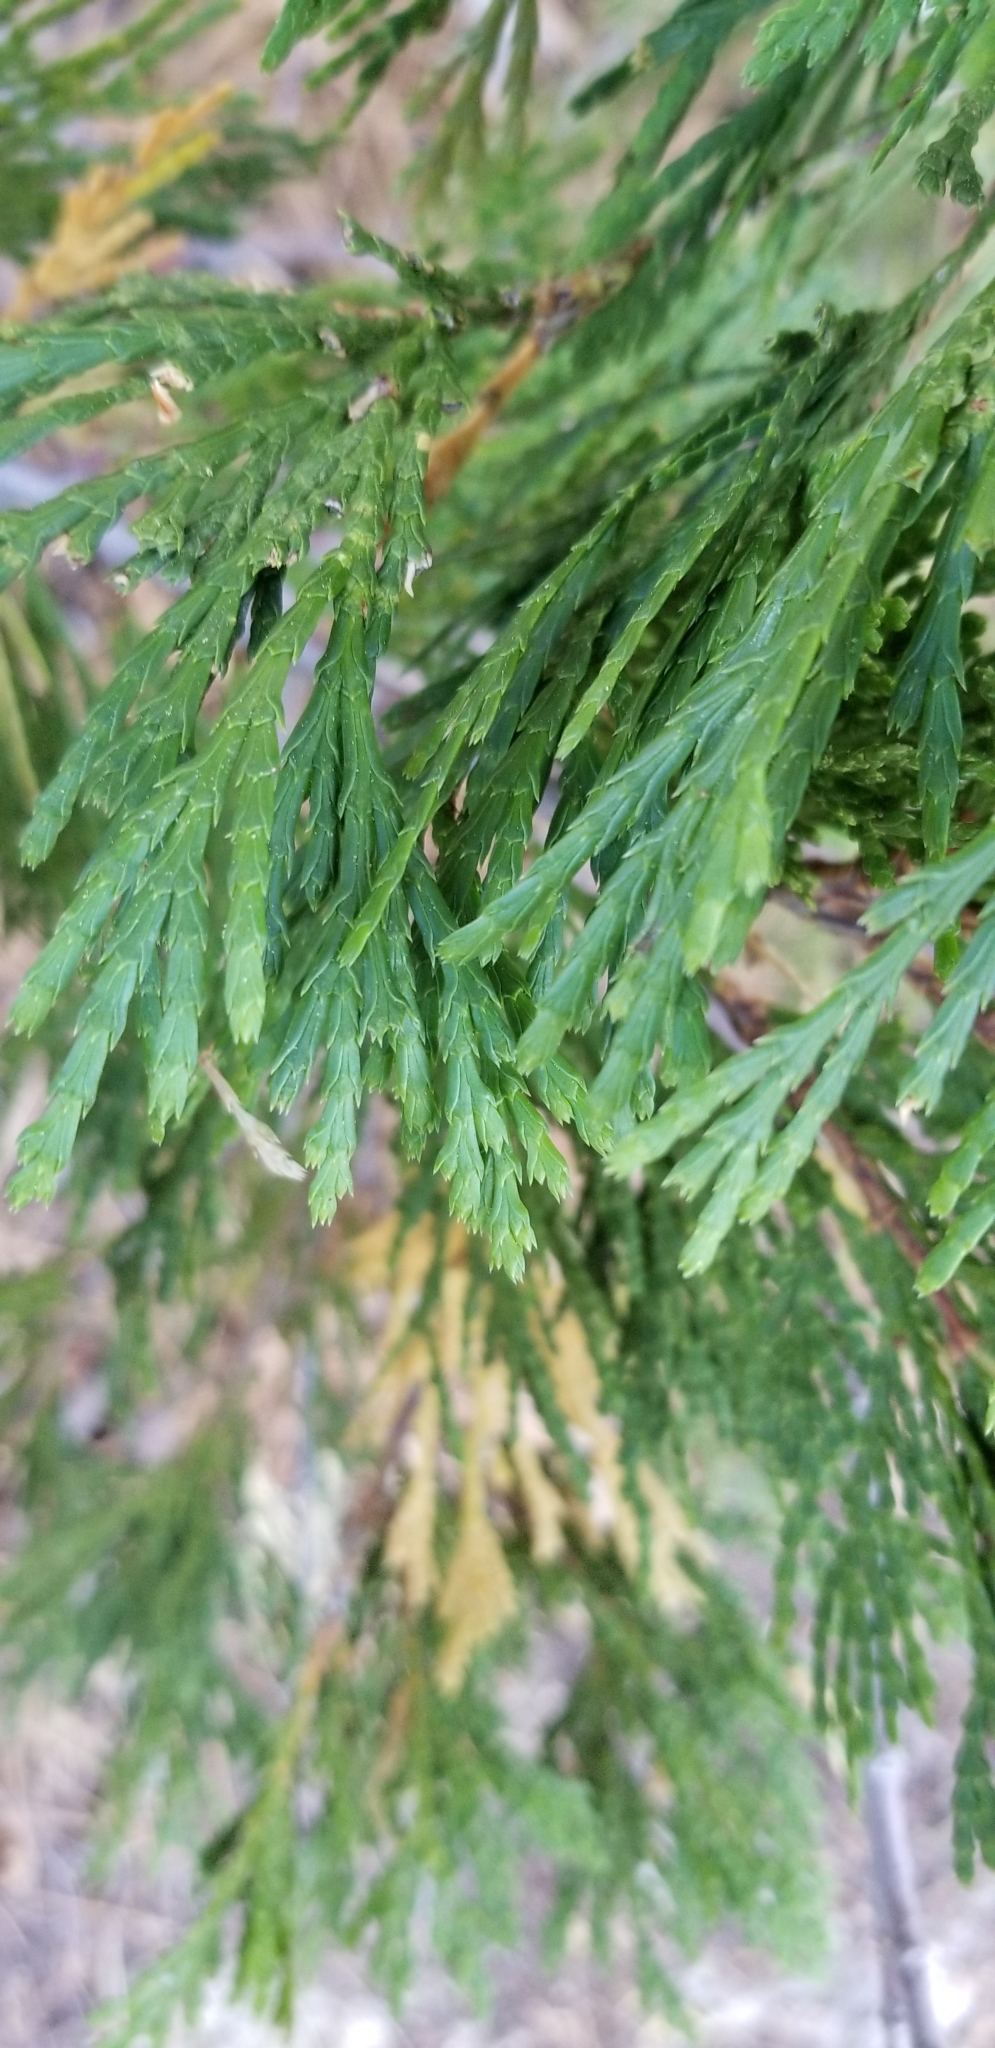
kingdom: Plantae
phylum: Tracheophyta
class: Pinopsida
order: Pinales
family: Cupressaceae
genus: Calocedrus
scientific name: Calocedrus decurrens
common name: Californian incense-cedar
